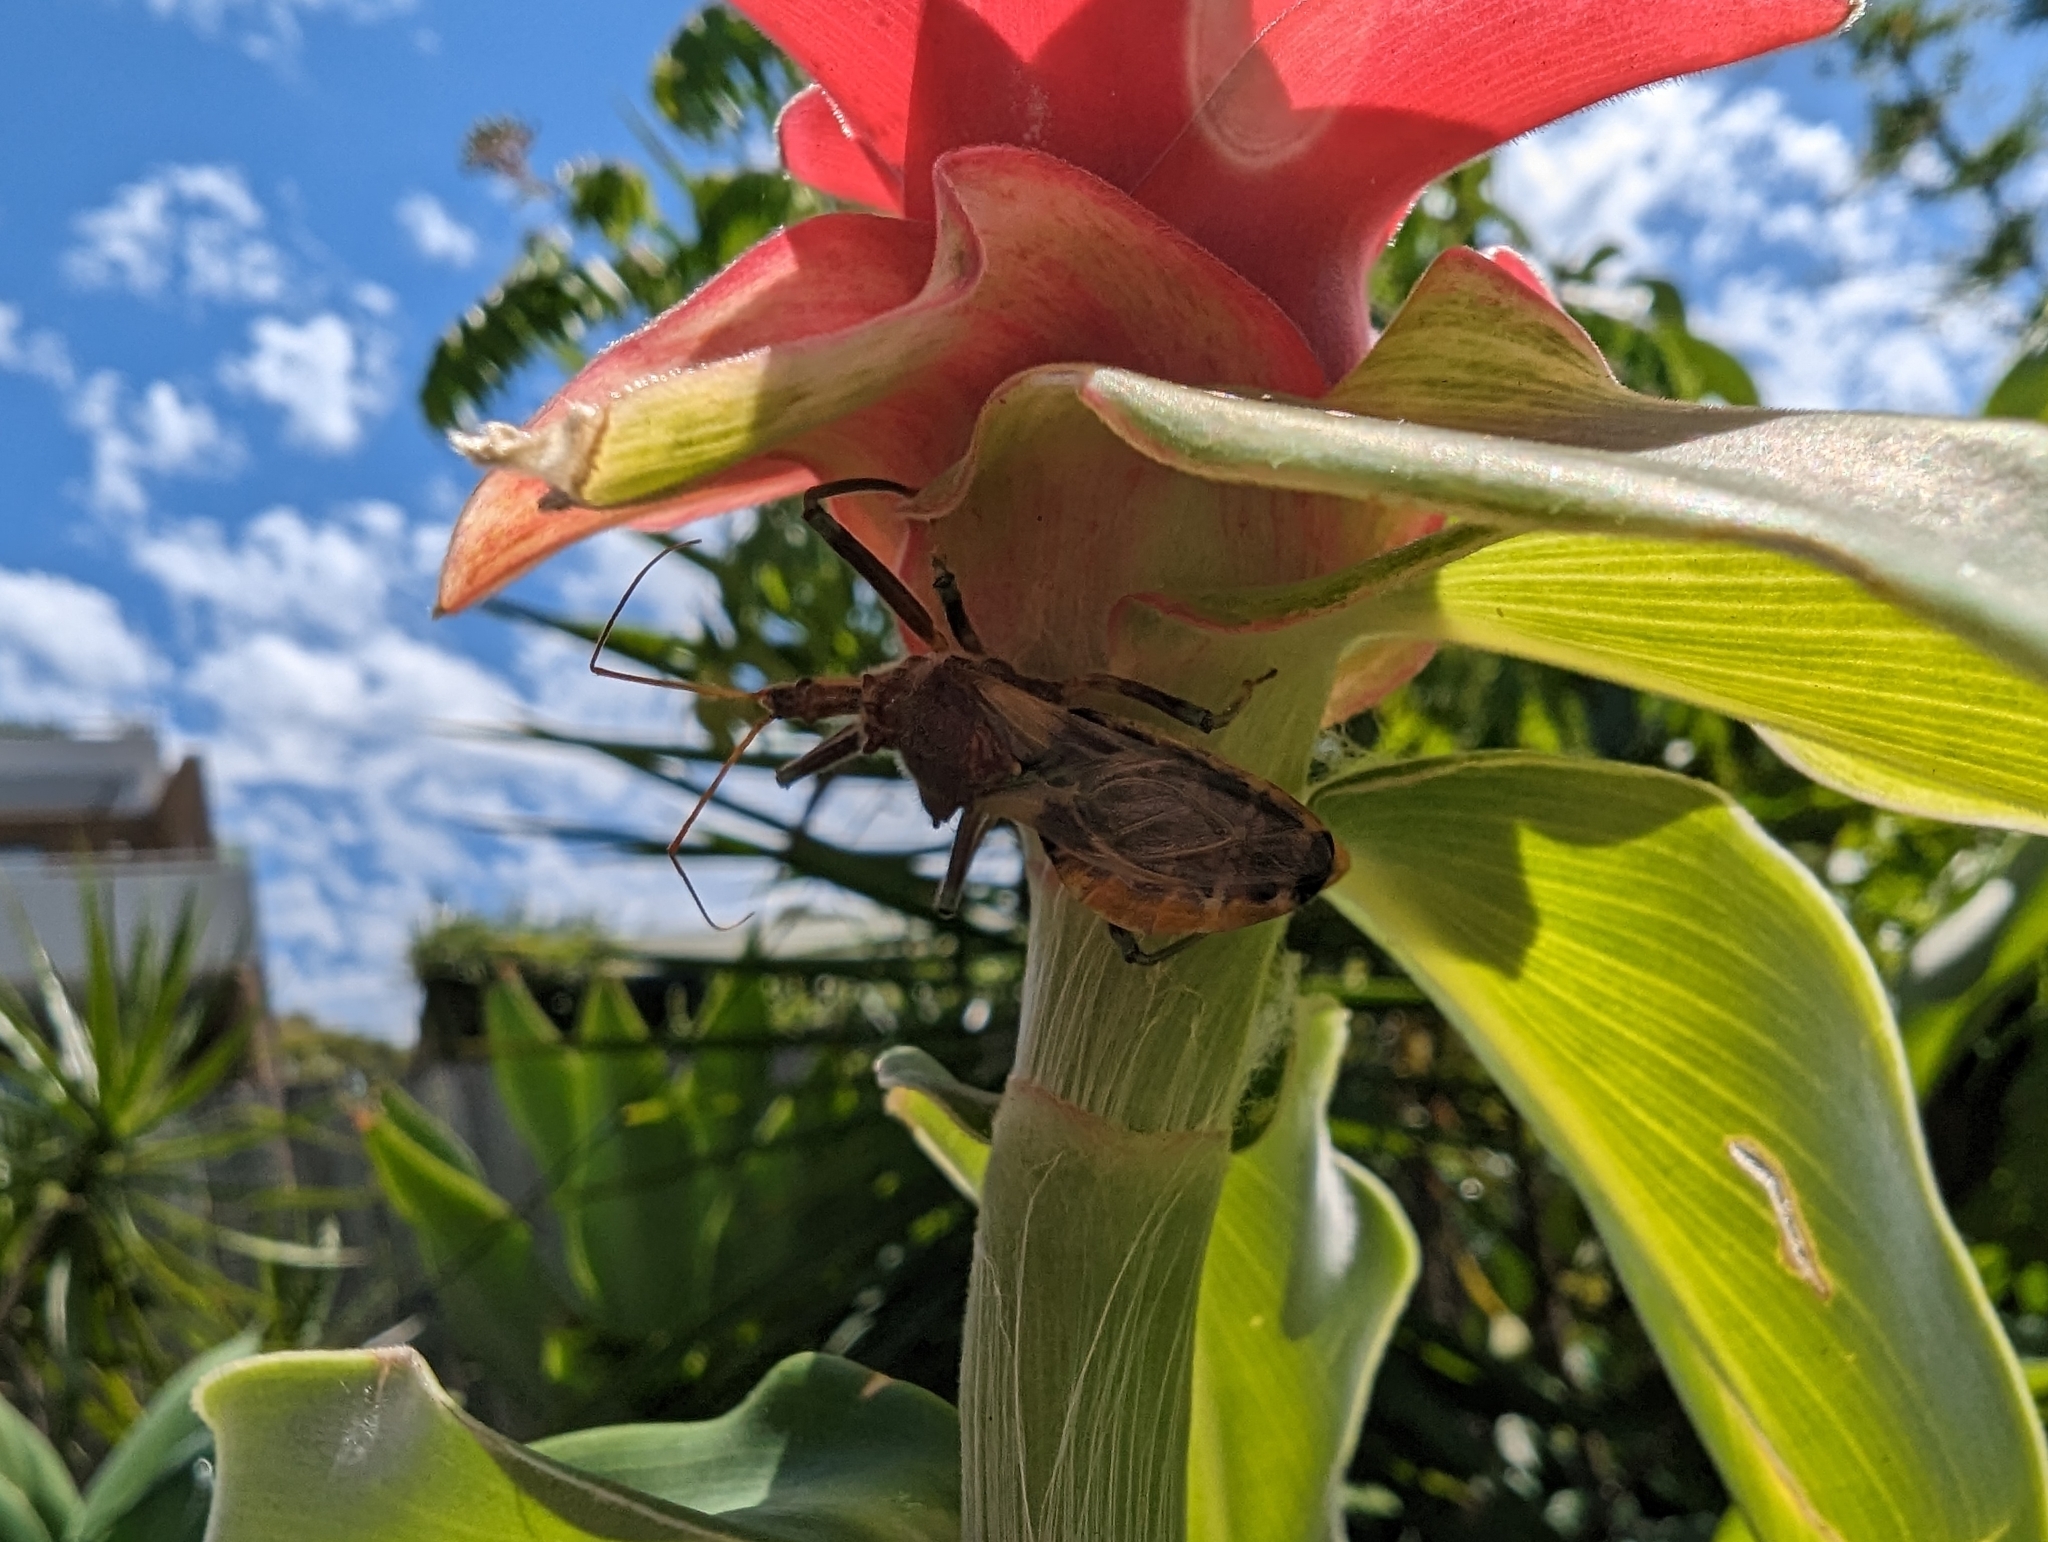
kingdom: Animalia
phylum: Arthropoda
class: Insecta
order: Hemiptera
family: Reduviidae
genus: Pristhesancus
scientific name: Pristhesancus plagipennis
